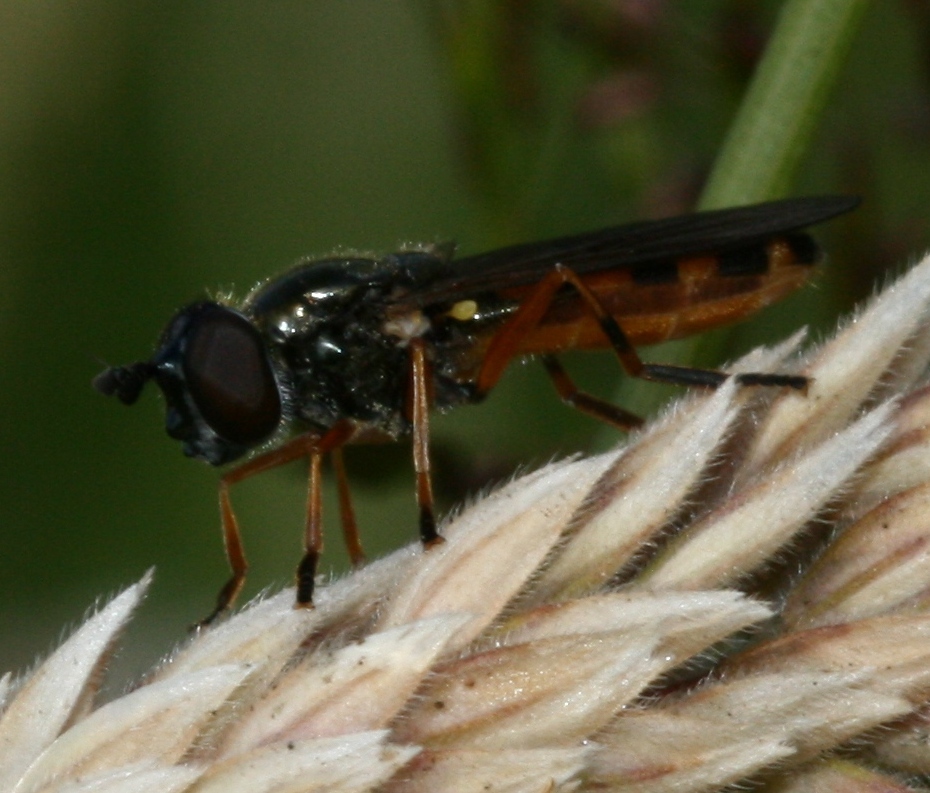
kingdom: Animalia
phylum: Arthropoda
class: Insecta
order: Diptera
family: Syrphidae
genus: Pyrophaena
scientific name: Pyrophaena granditarsa
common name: Hornhand sedgesitter
